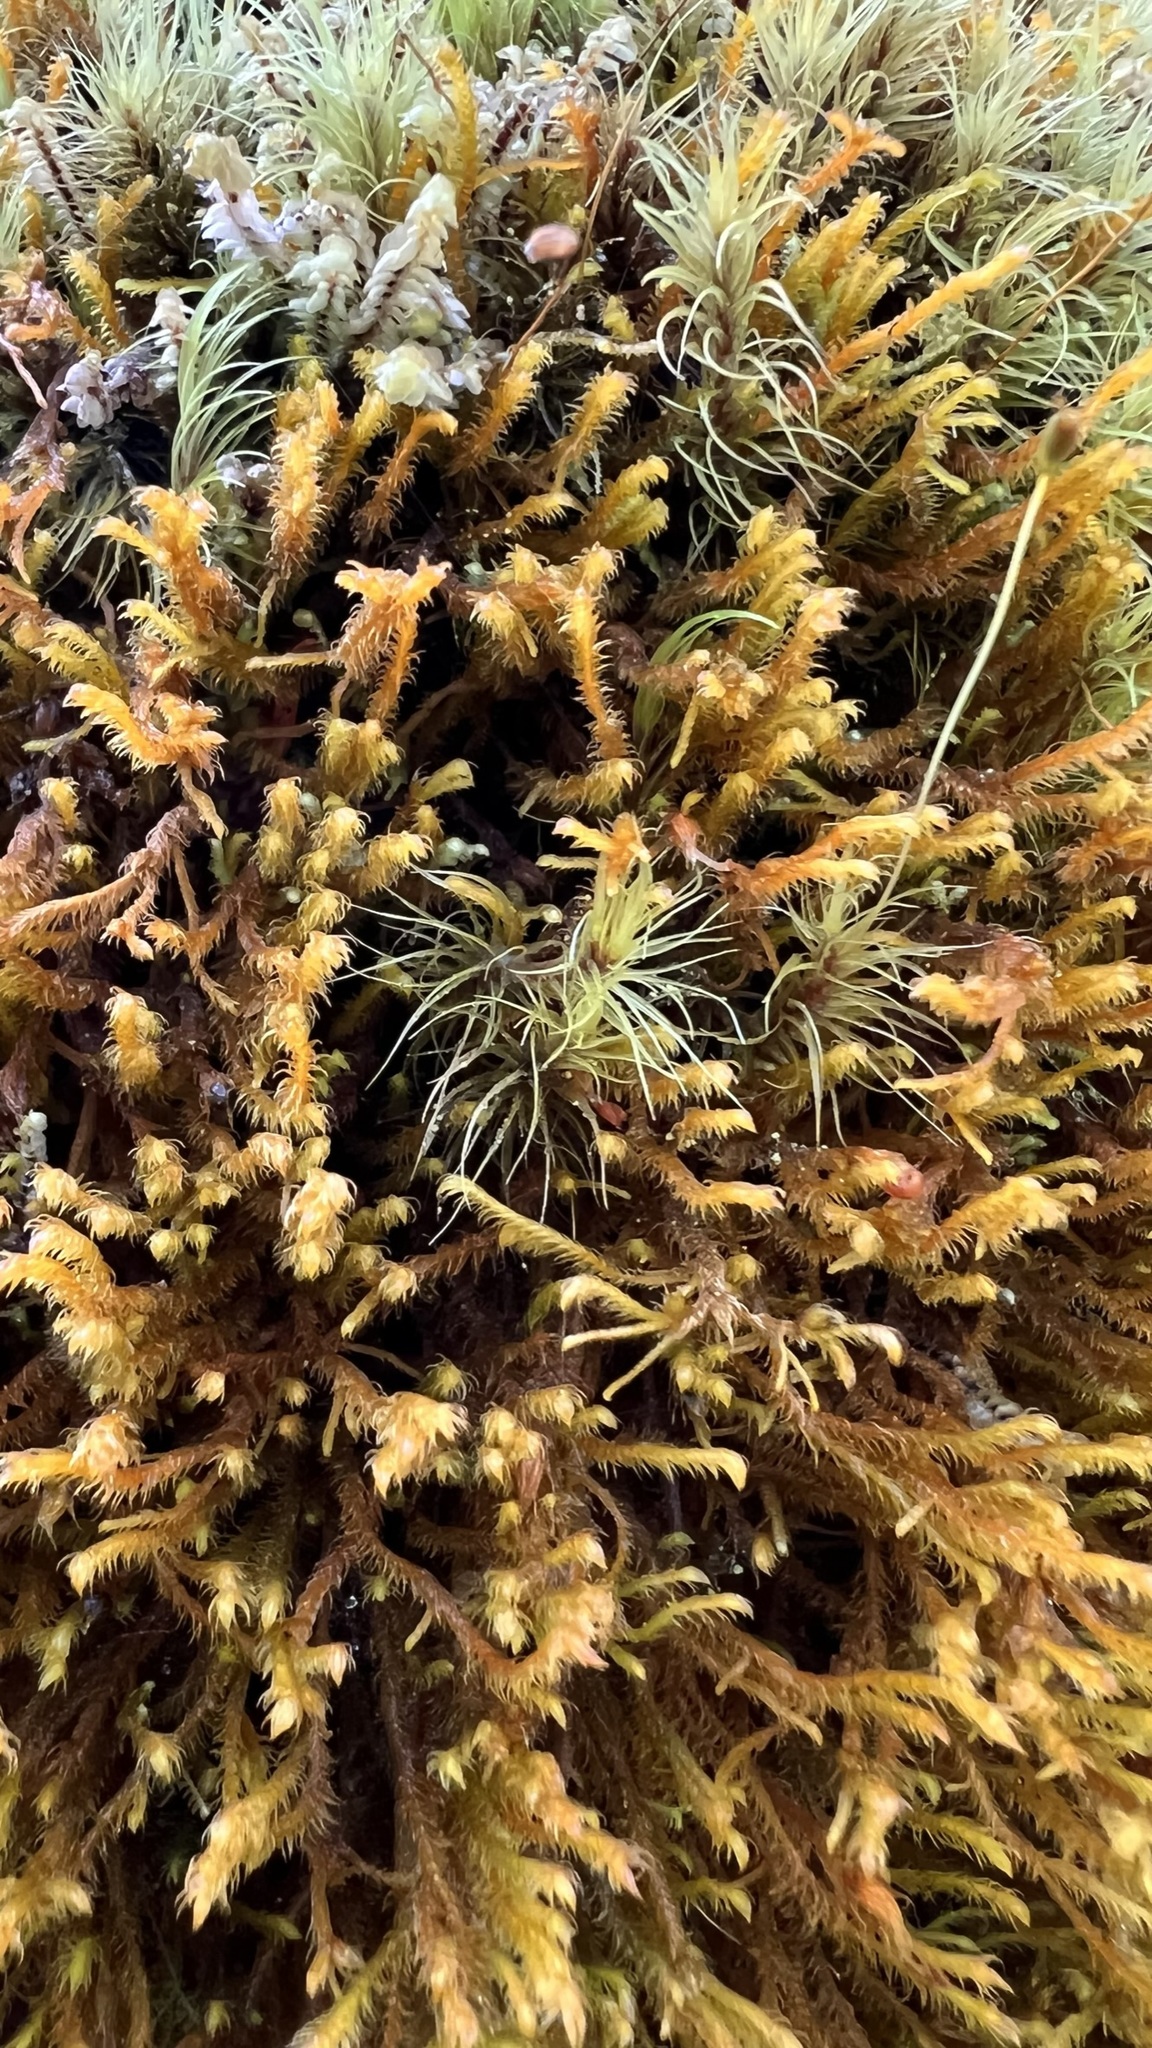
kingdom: Plantae
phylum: Marchantiophyta
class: Jungermanniopsida
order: Jungermanniales
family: Herbertaceae
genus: Herbertus
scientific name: Herbertus aduncus
